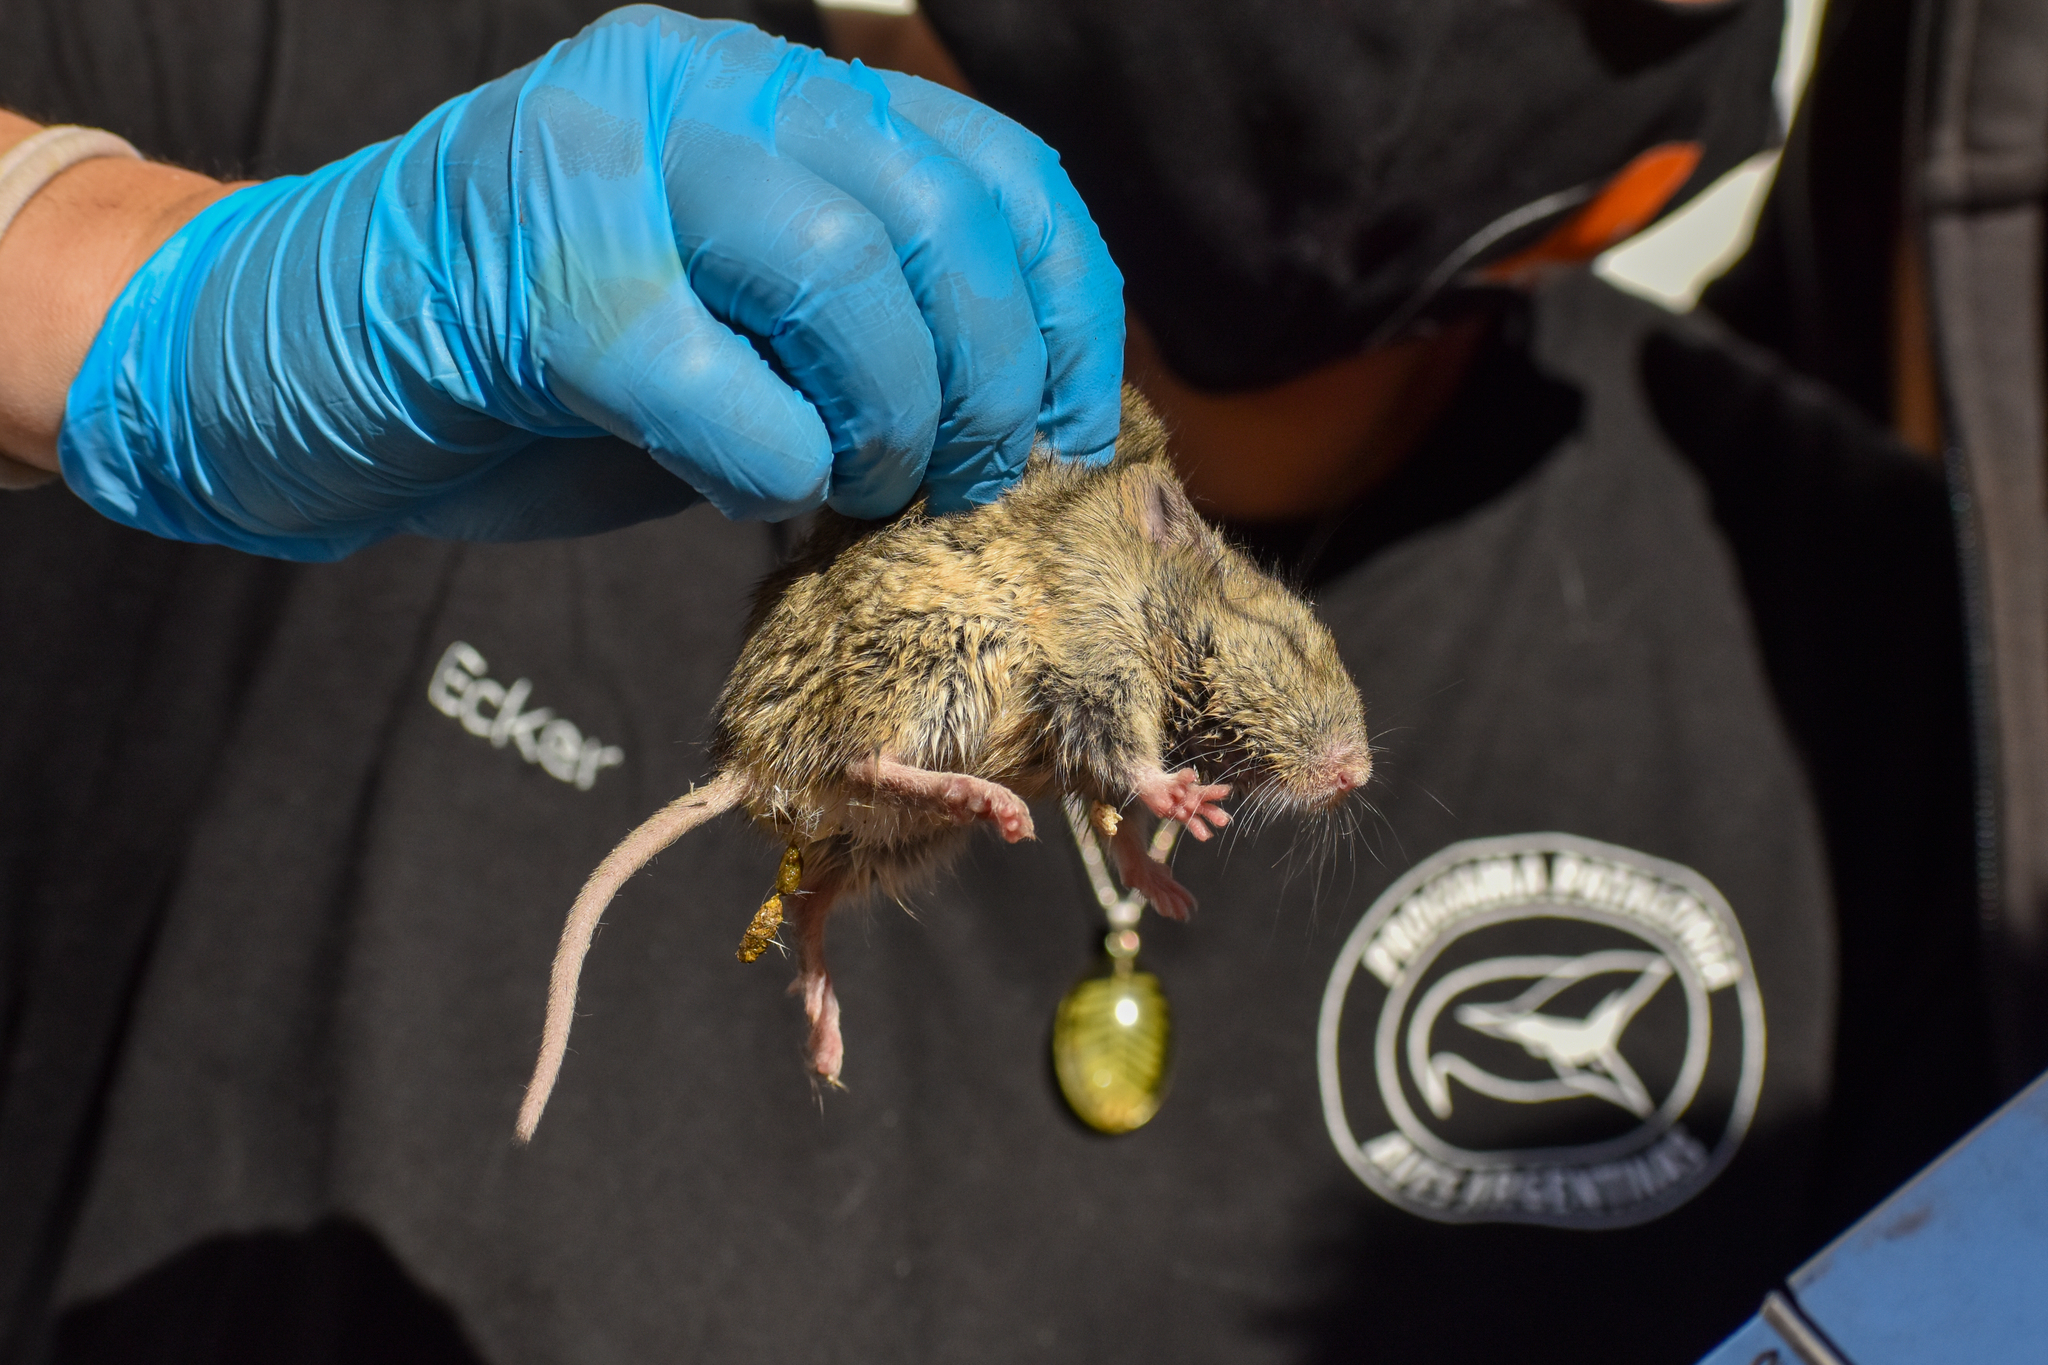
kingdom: Animalia
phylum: Chordata
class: Mammalia
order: Rodentia
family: Cricetidae
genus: Euneomys
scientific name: Euneomys chinchilloides
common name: Tierra del fuego euneomys
